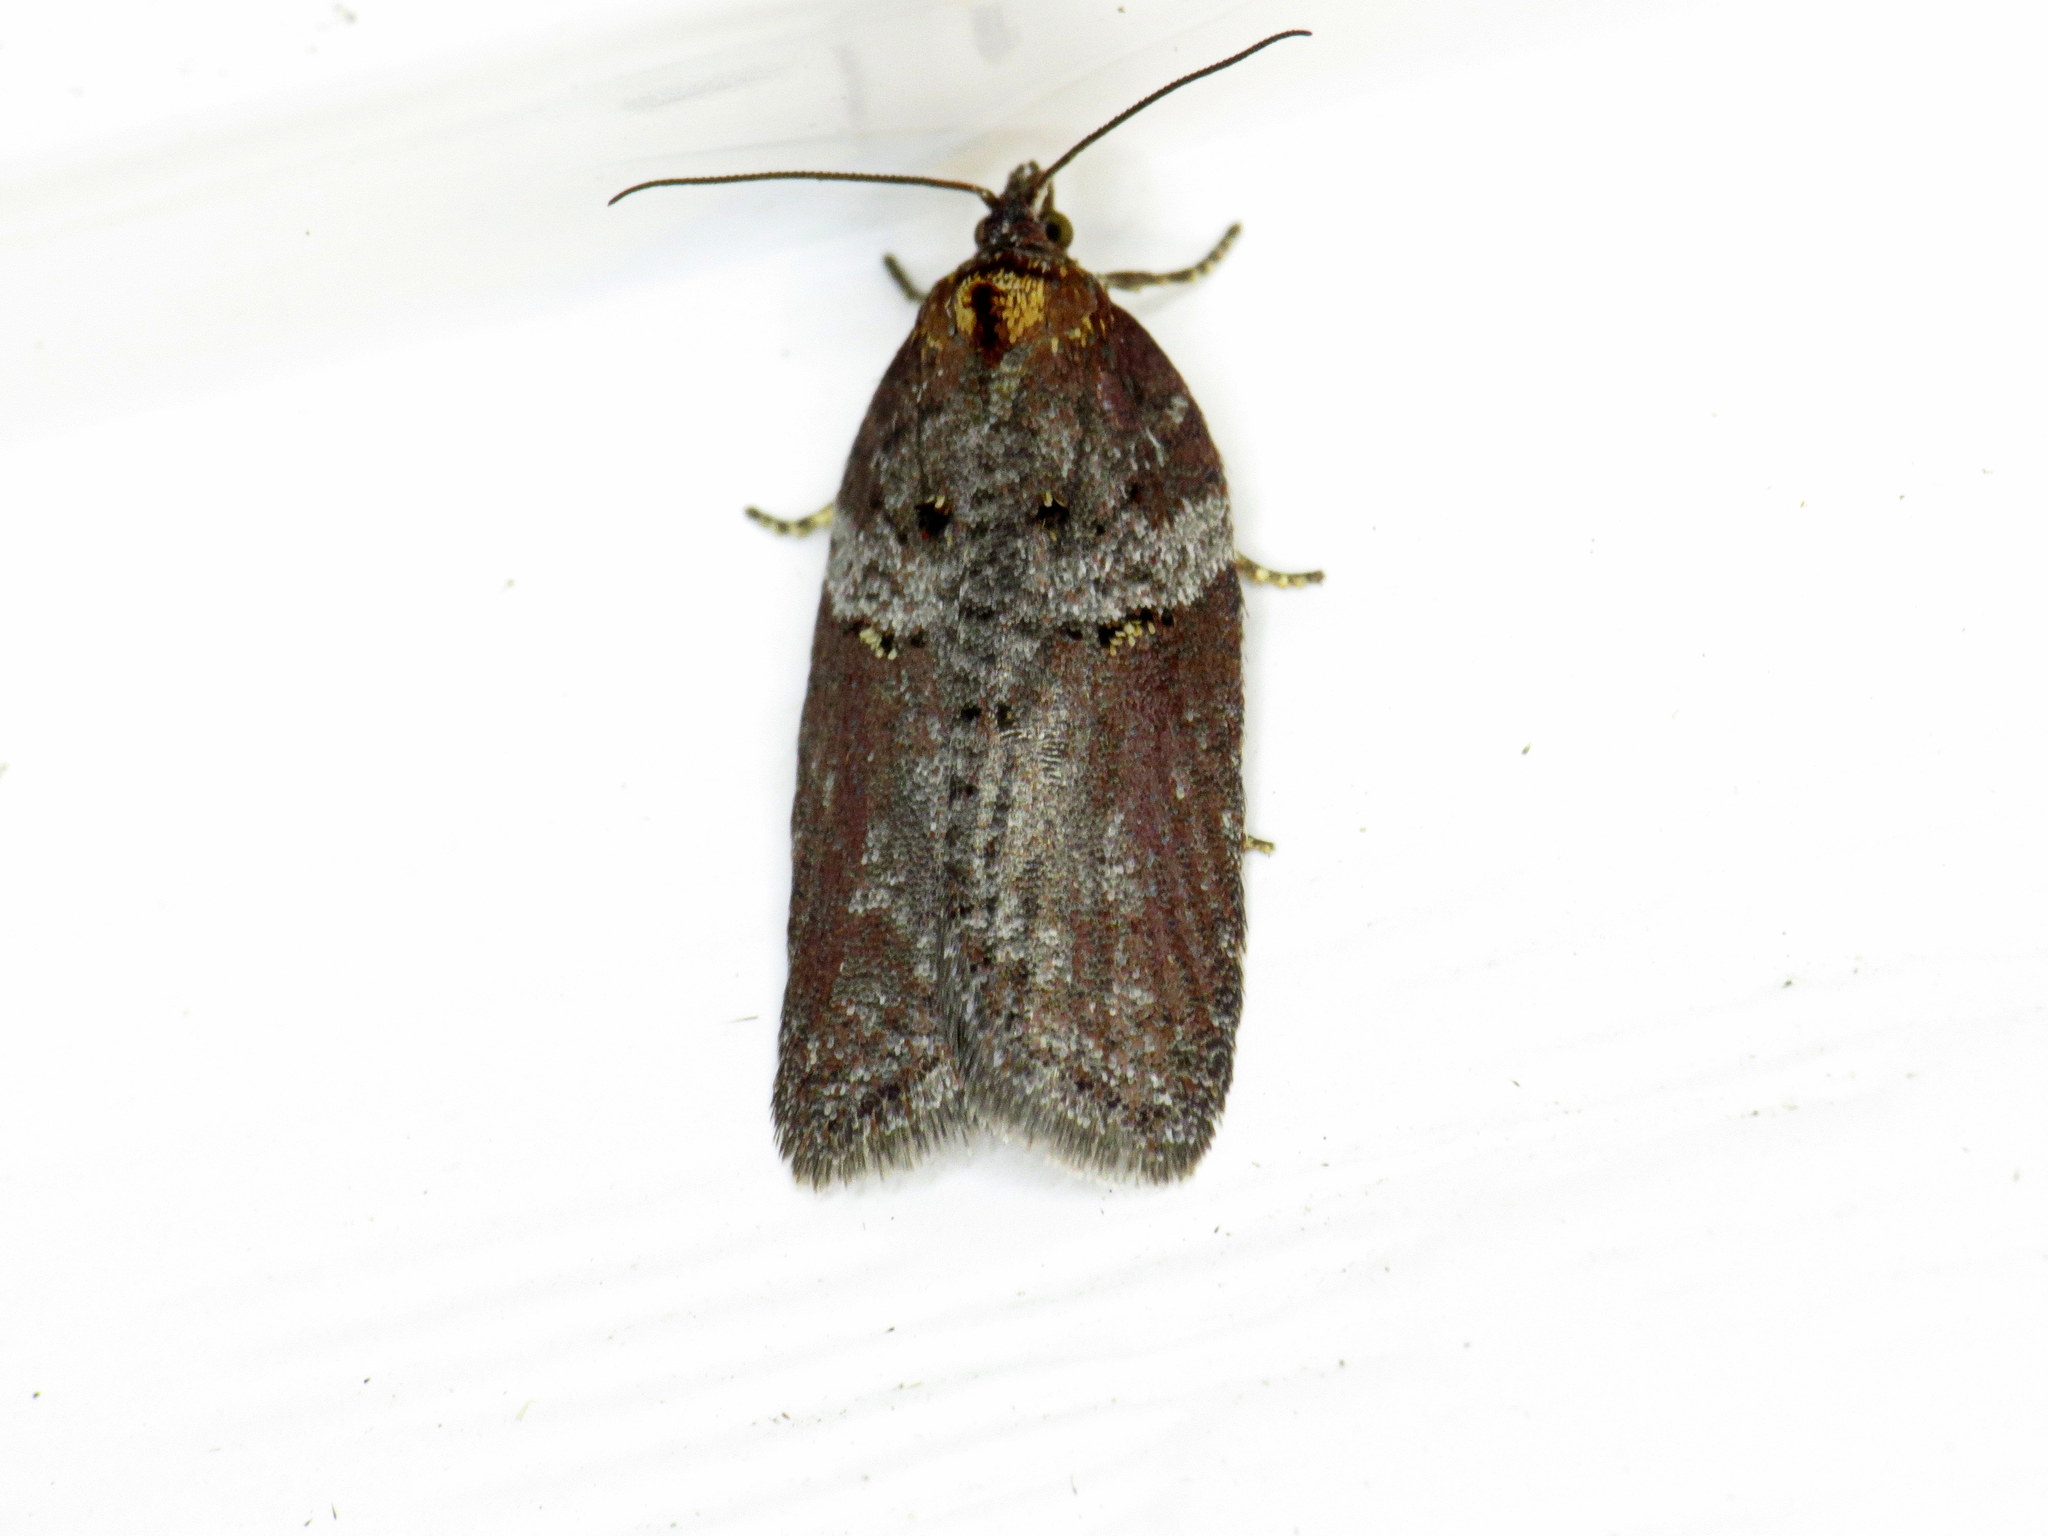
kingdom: Animalia
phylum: Arthropoda
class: Insecta
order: Lepidoptera
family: Tortricidae
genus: Acleris
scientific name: Acleris celiana
